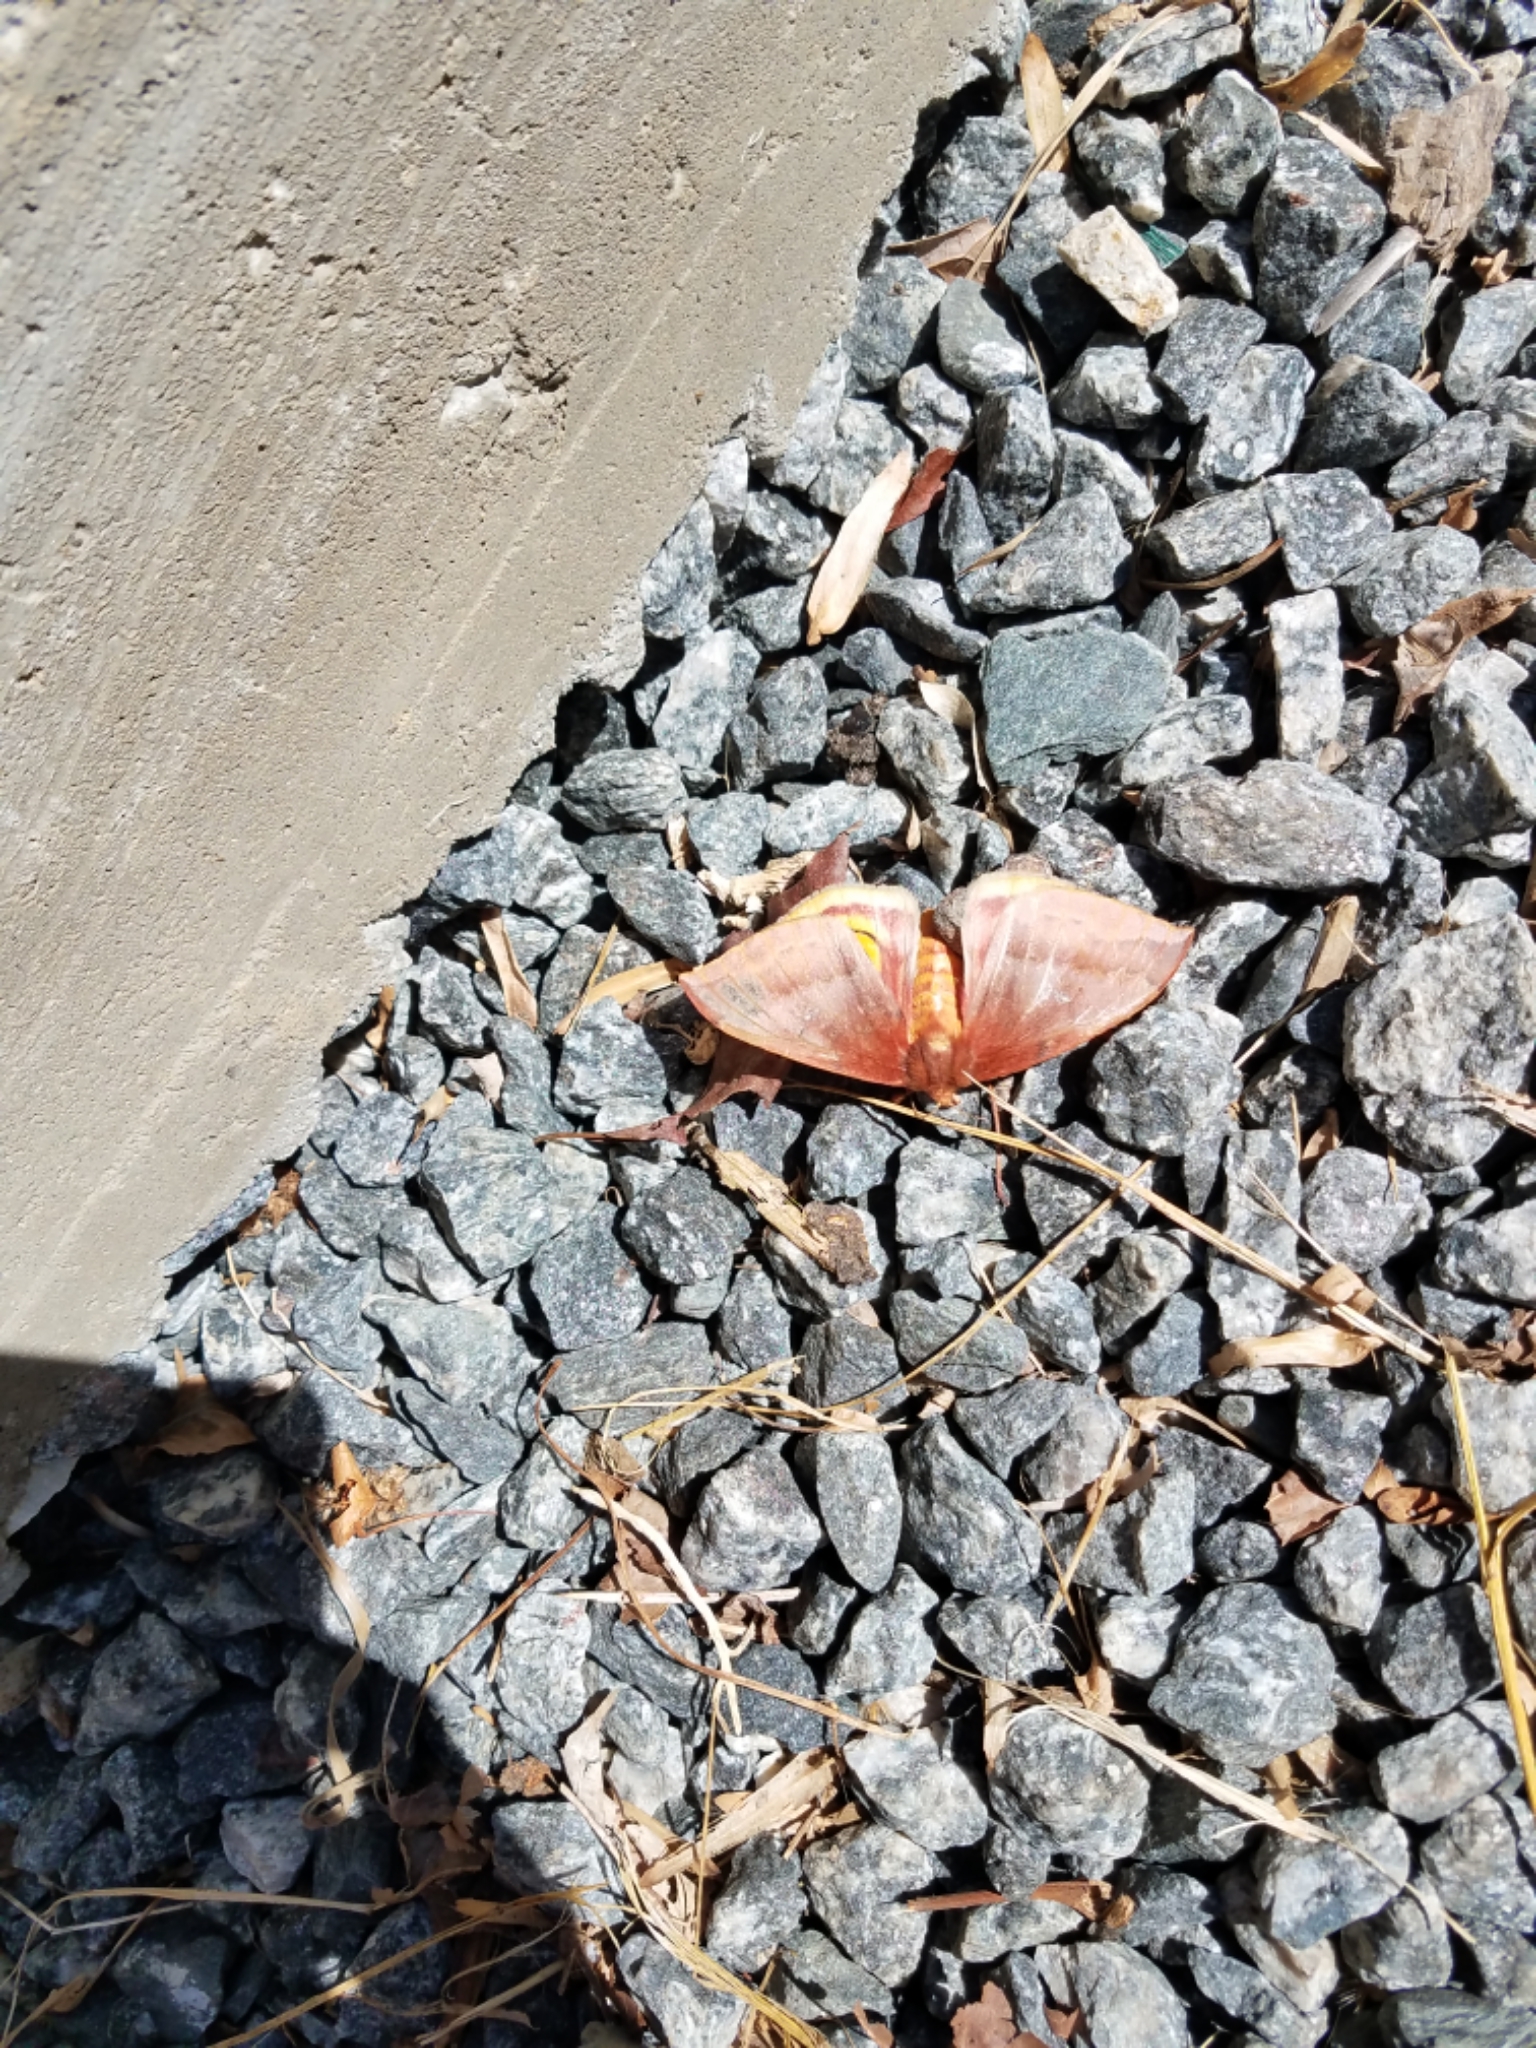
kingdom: Animalia
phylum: Arthropoda
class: Insecta
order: Lepidoptera
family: Saturniidae
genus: Automeris
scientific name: Automeris io
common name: Io moth
